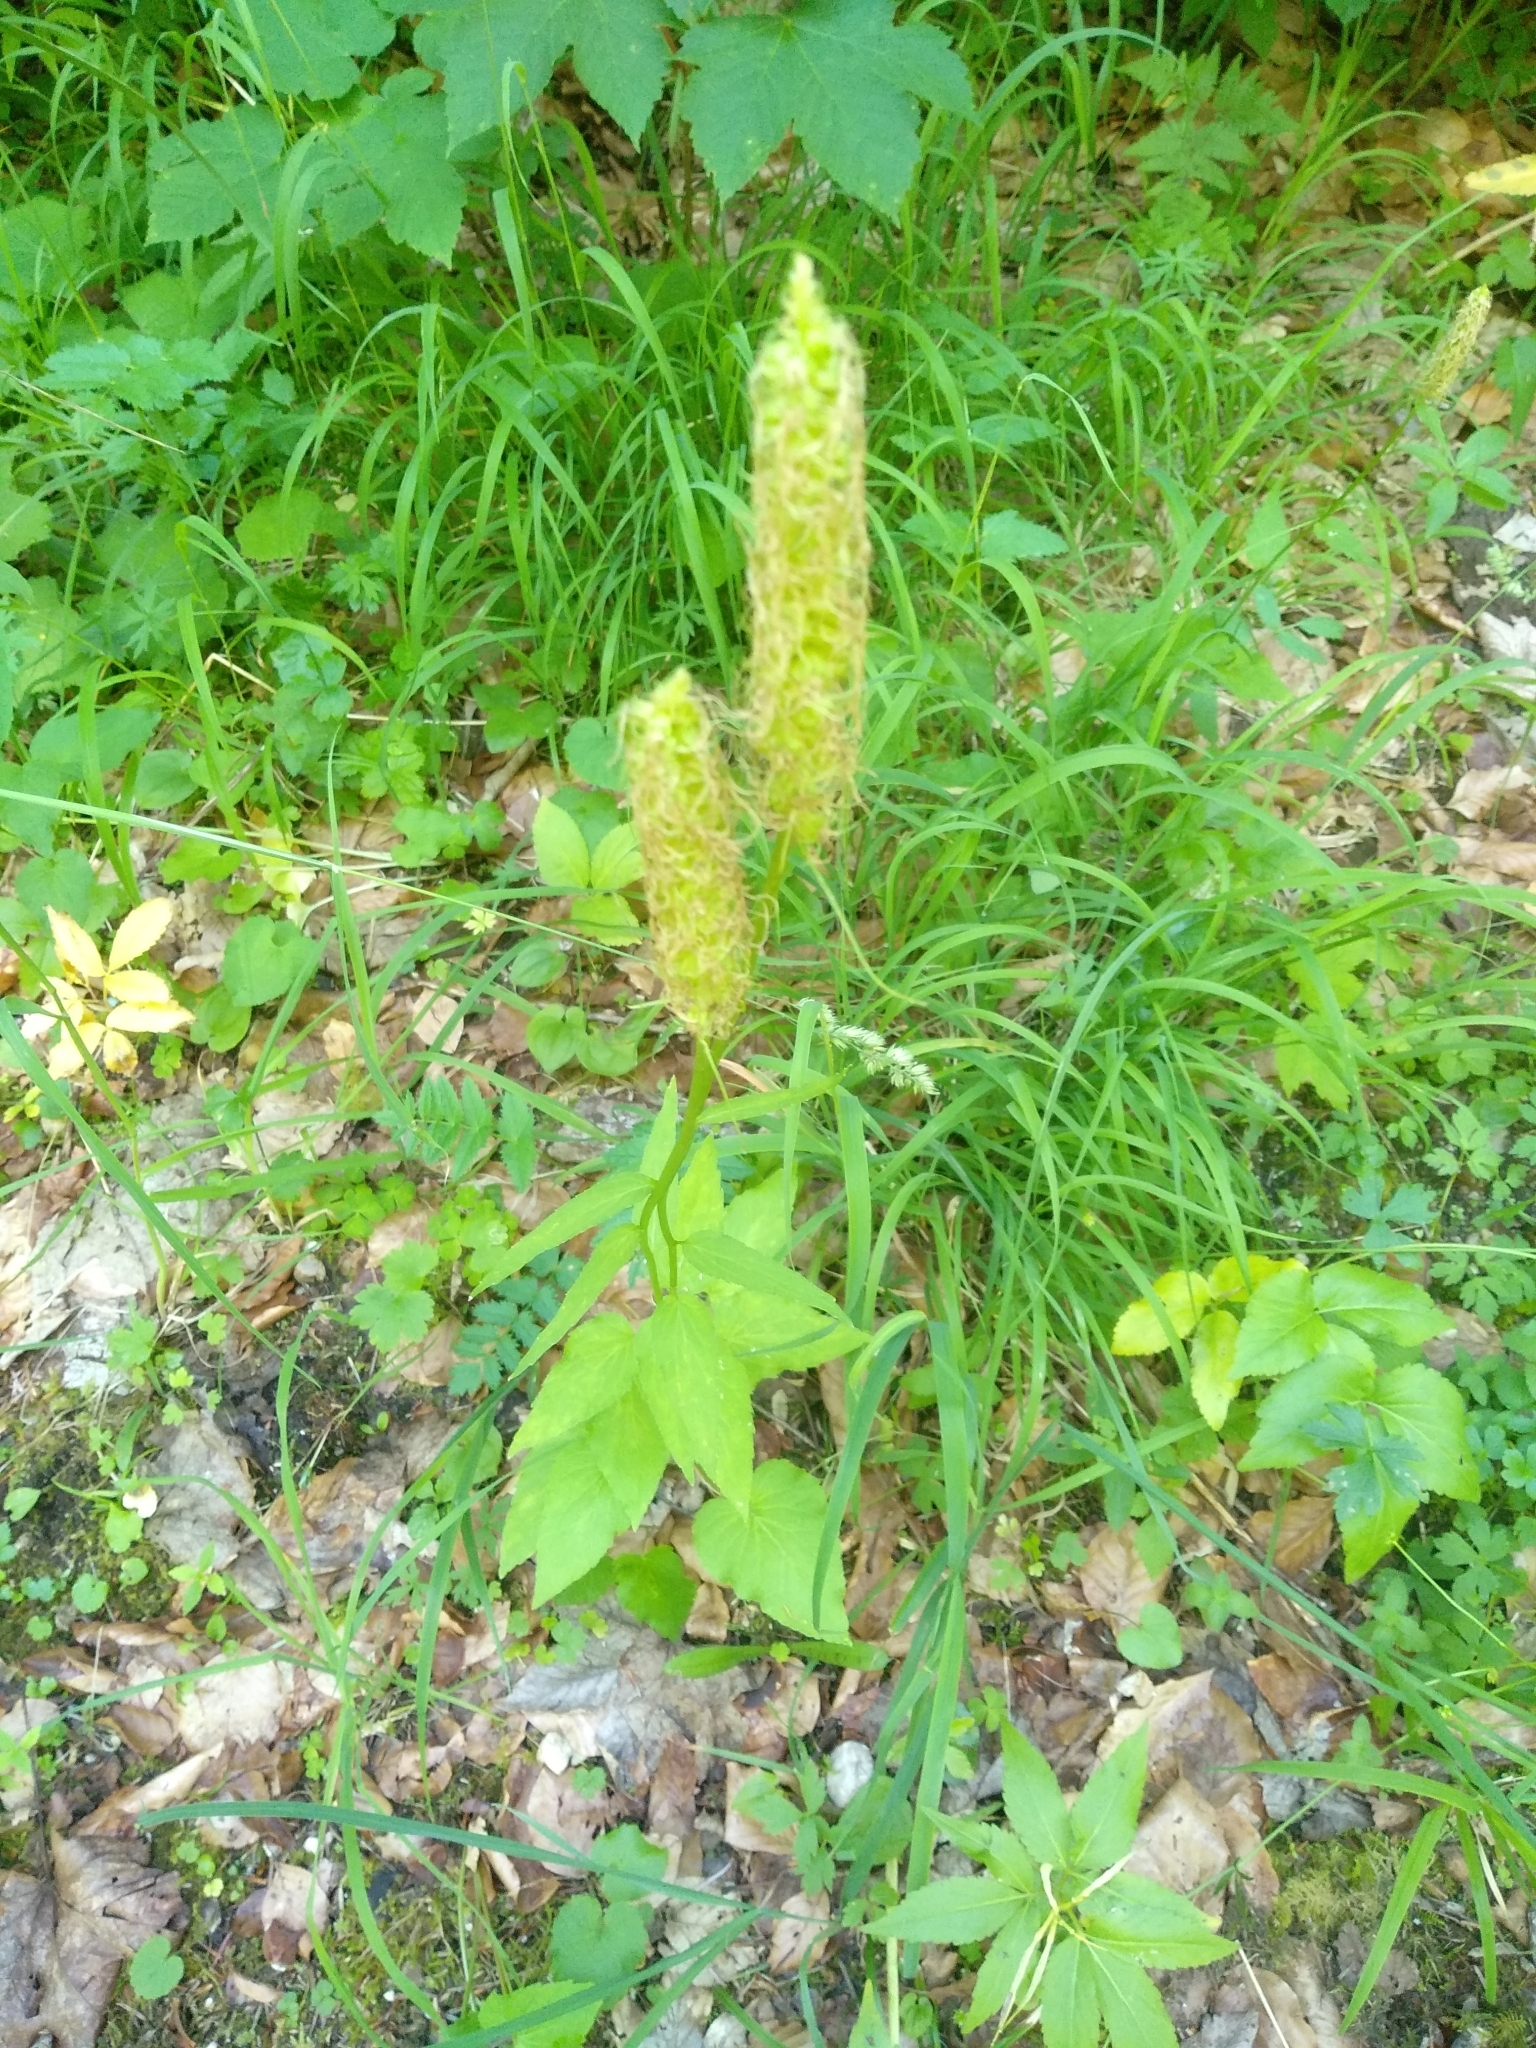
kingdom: Plantae
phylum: Tracheophyta
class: Magnoliopsida
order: Asterales
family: Campanulaceae
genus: Phyteuma
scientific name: Phyteuma spicatum
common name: Spiked rampion
